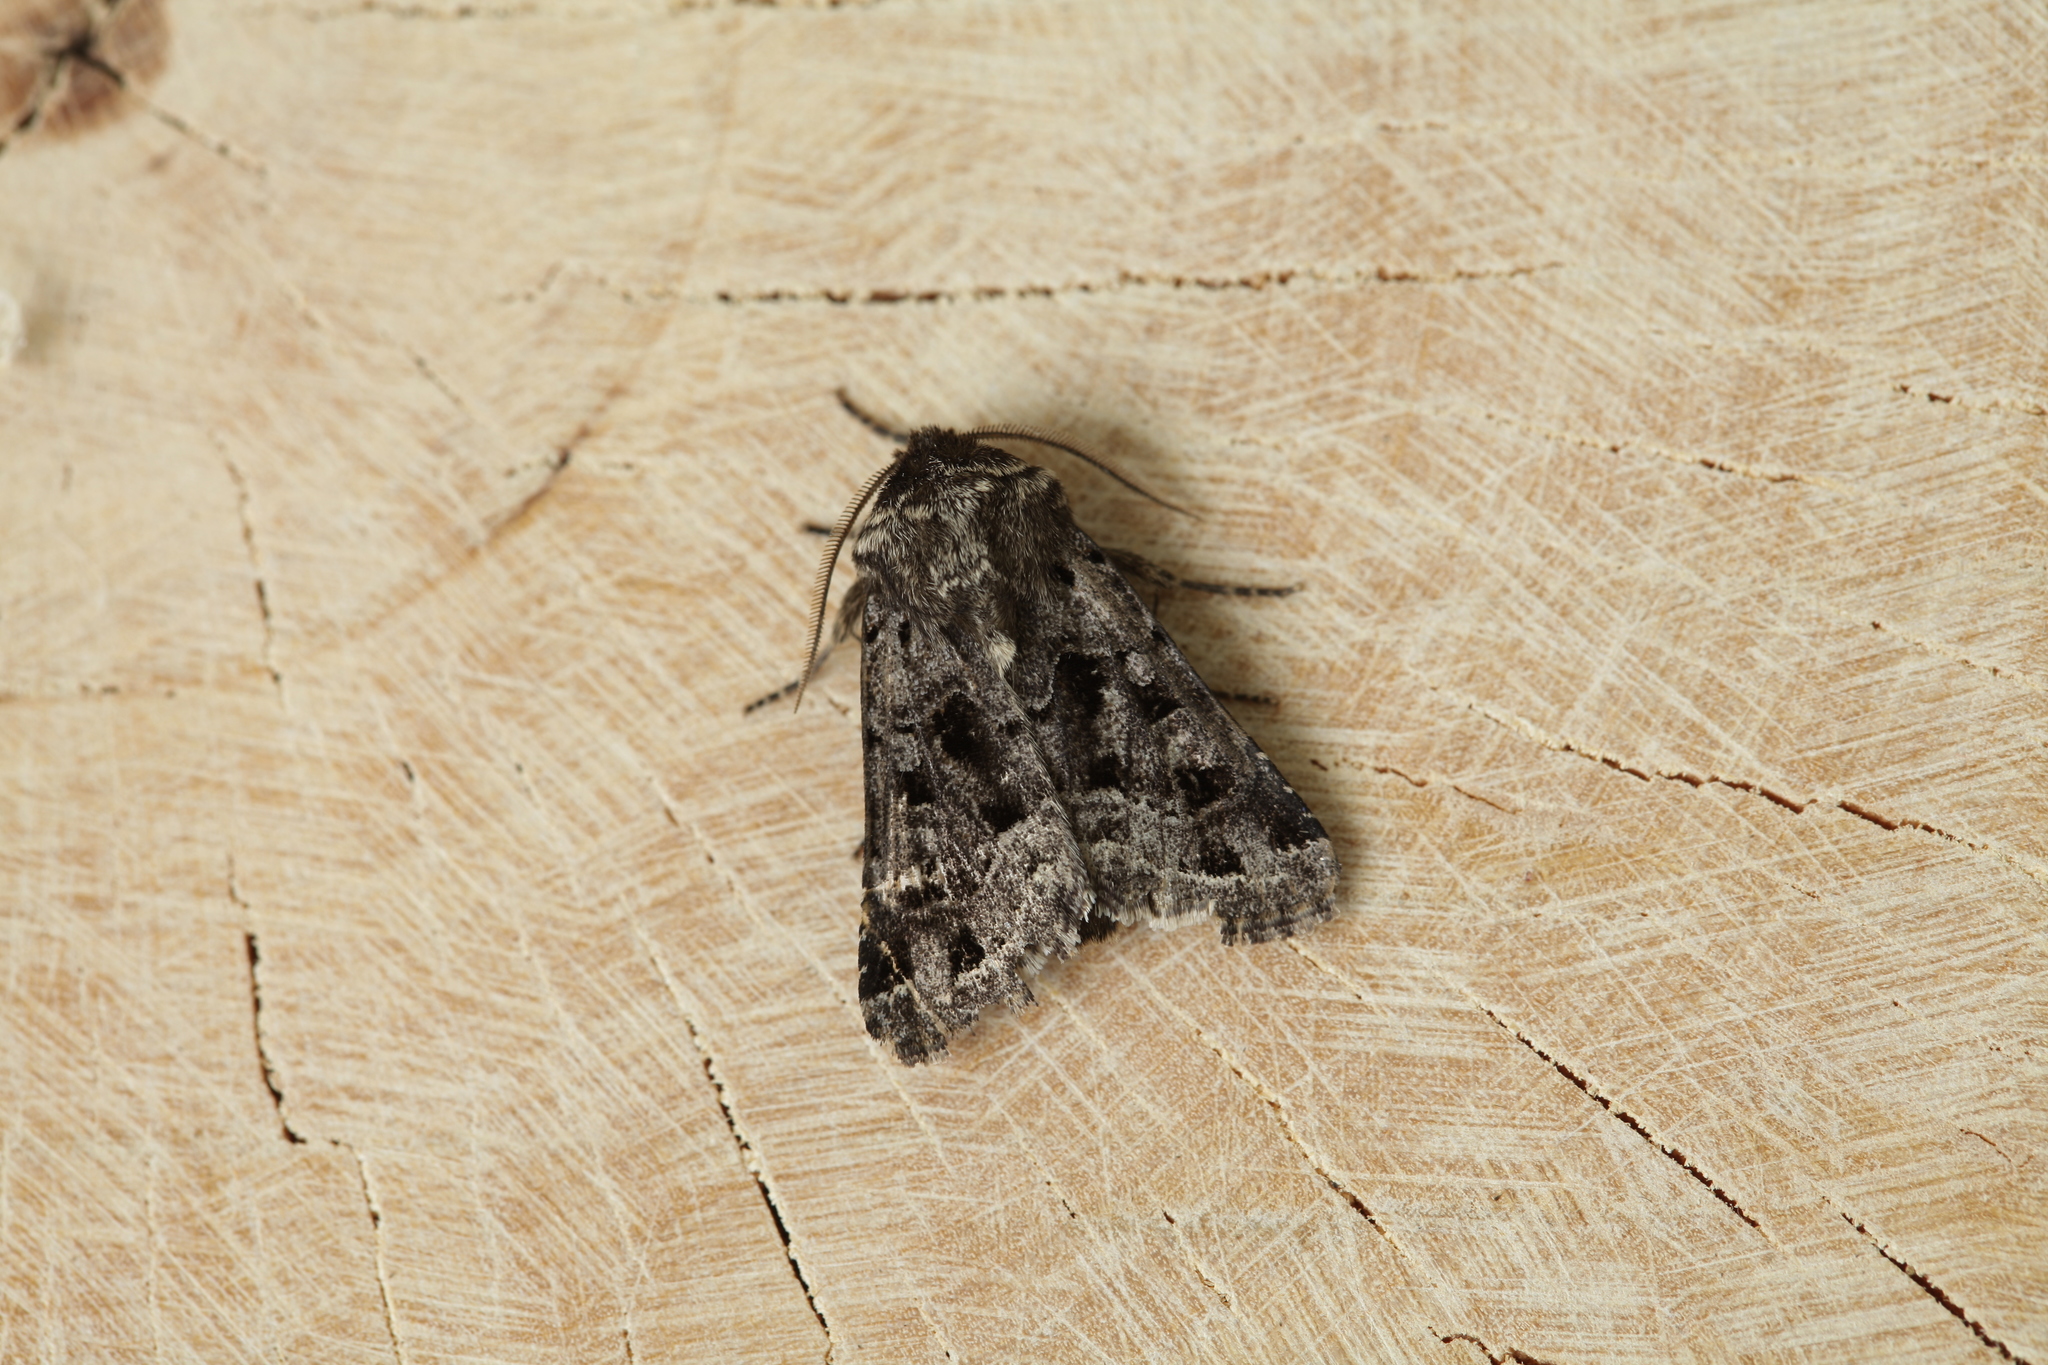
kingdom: Animalia
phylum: Arthropoda
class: Insecta
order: Lepidoptera
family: Noctuidae
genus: Saragossa
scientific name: Saragossa porosa
